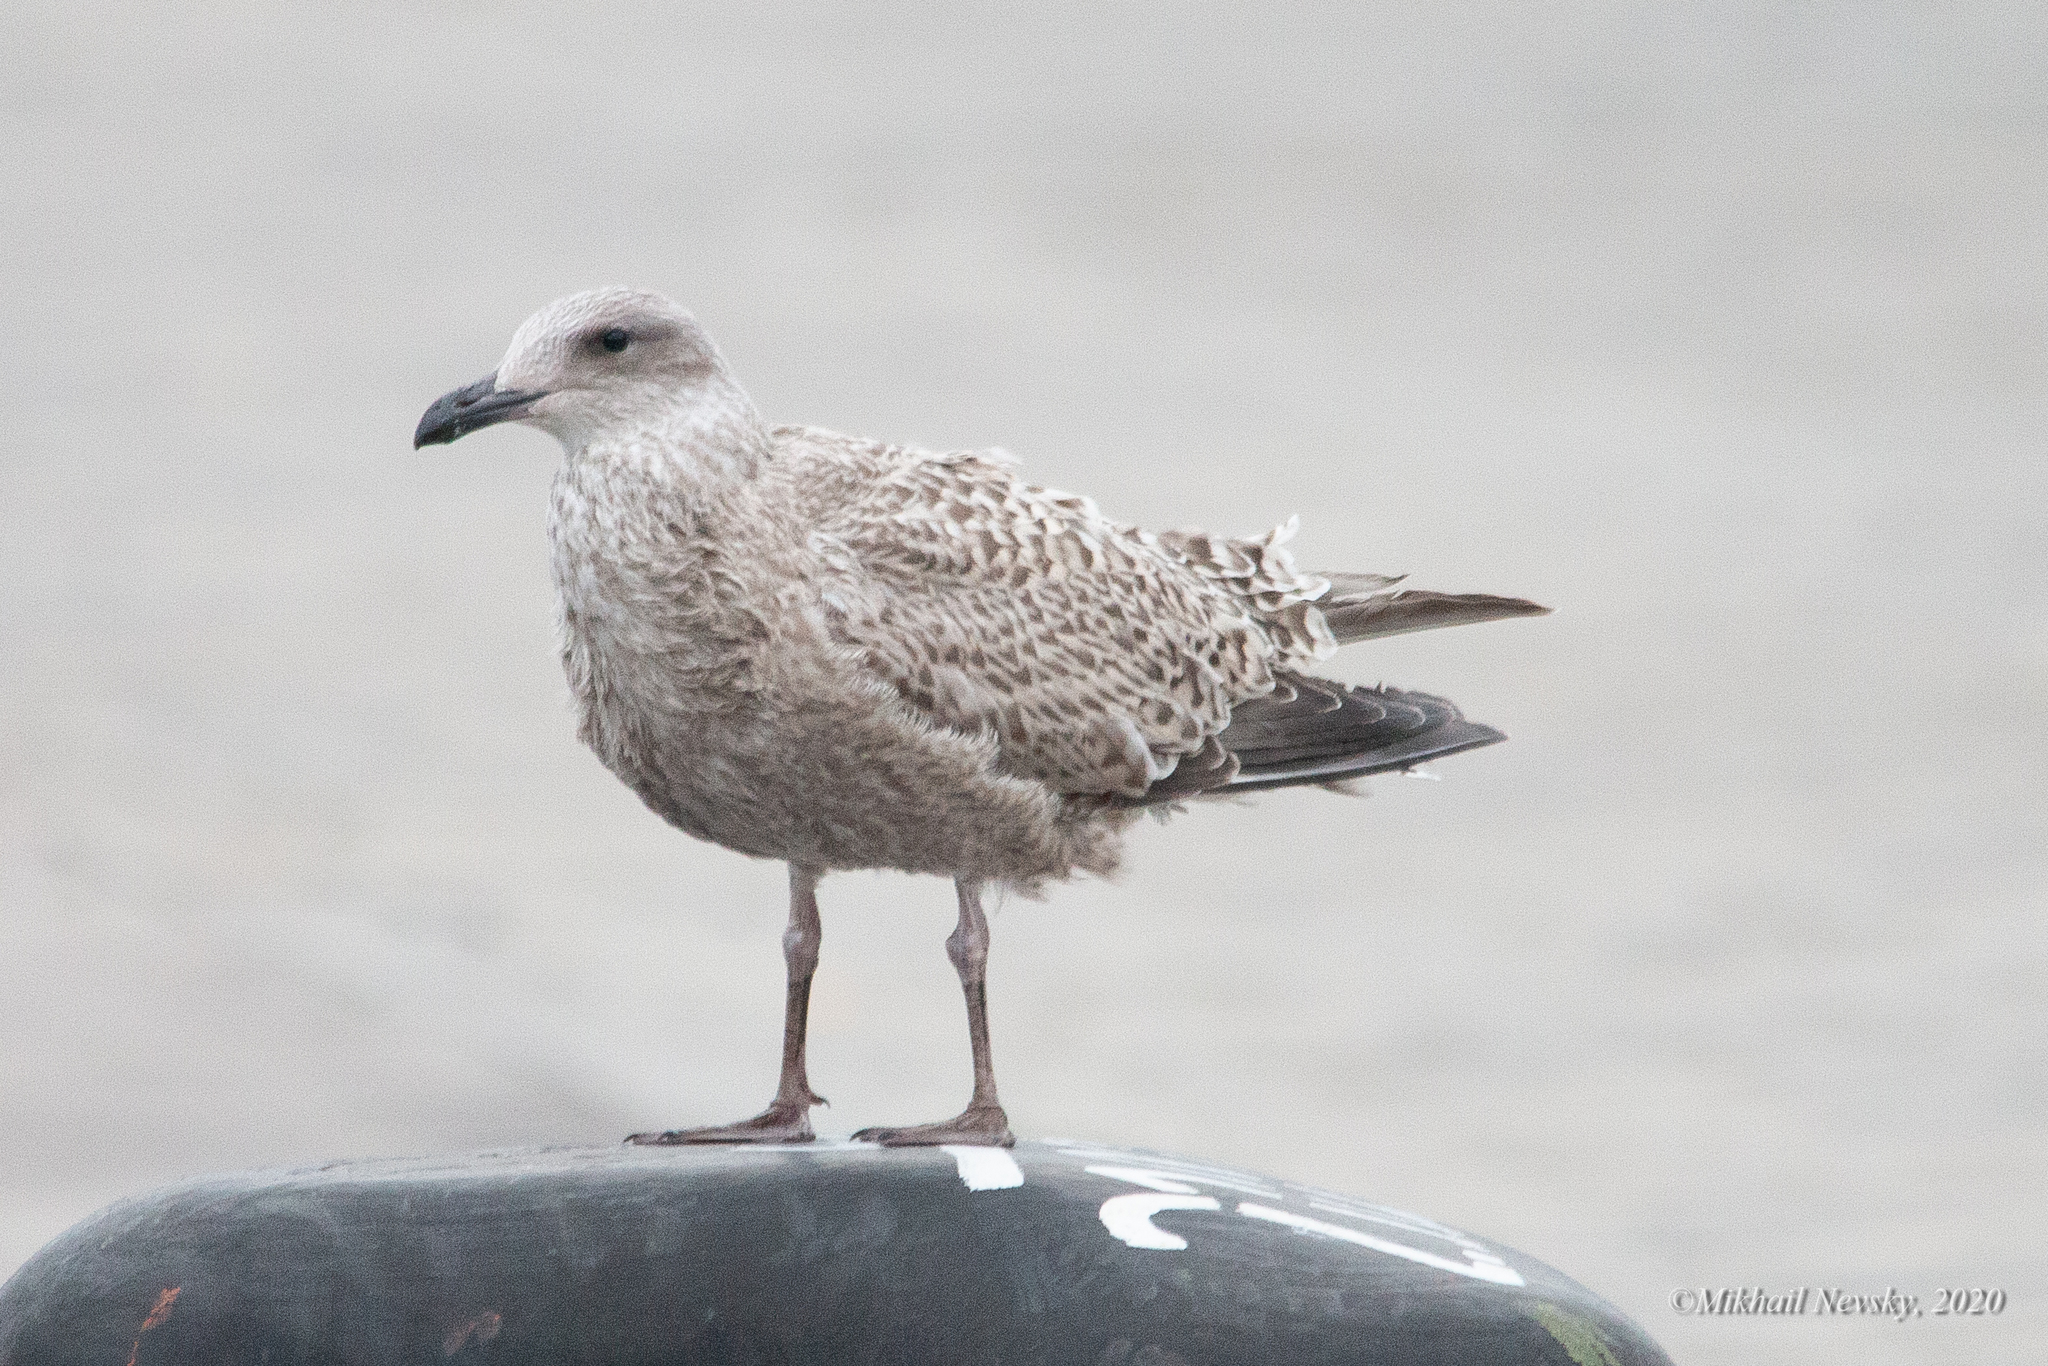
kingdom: Animalia
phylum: Chordata
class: Aves
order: Charadriiformes
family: Laridae
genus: Larus
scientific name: Larus argentatus
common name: Herring gull
